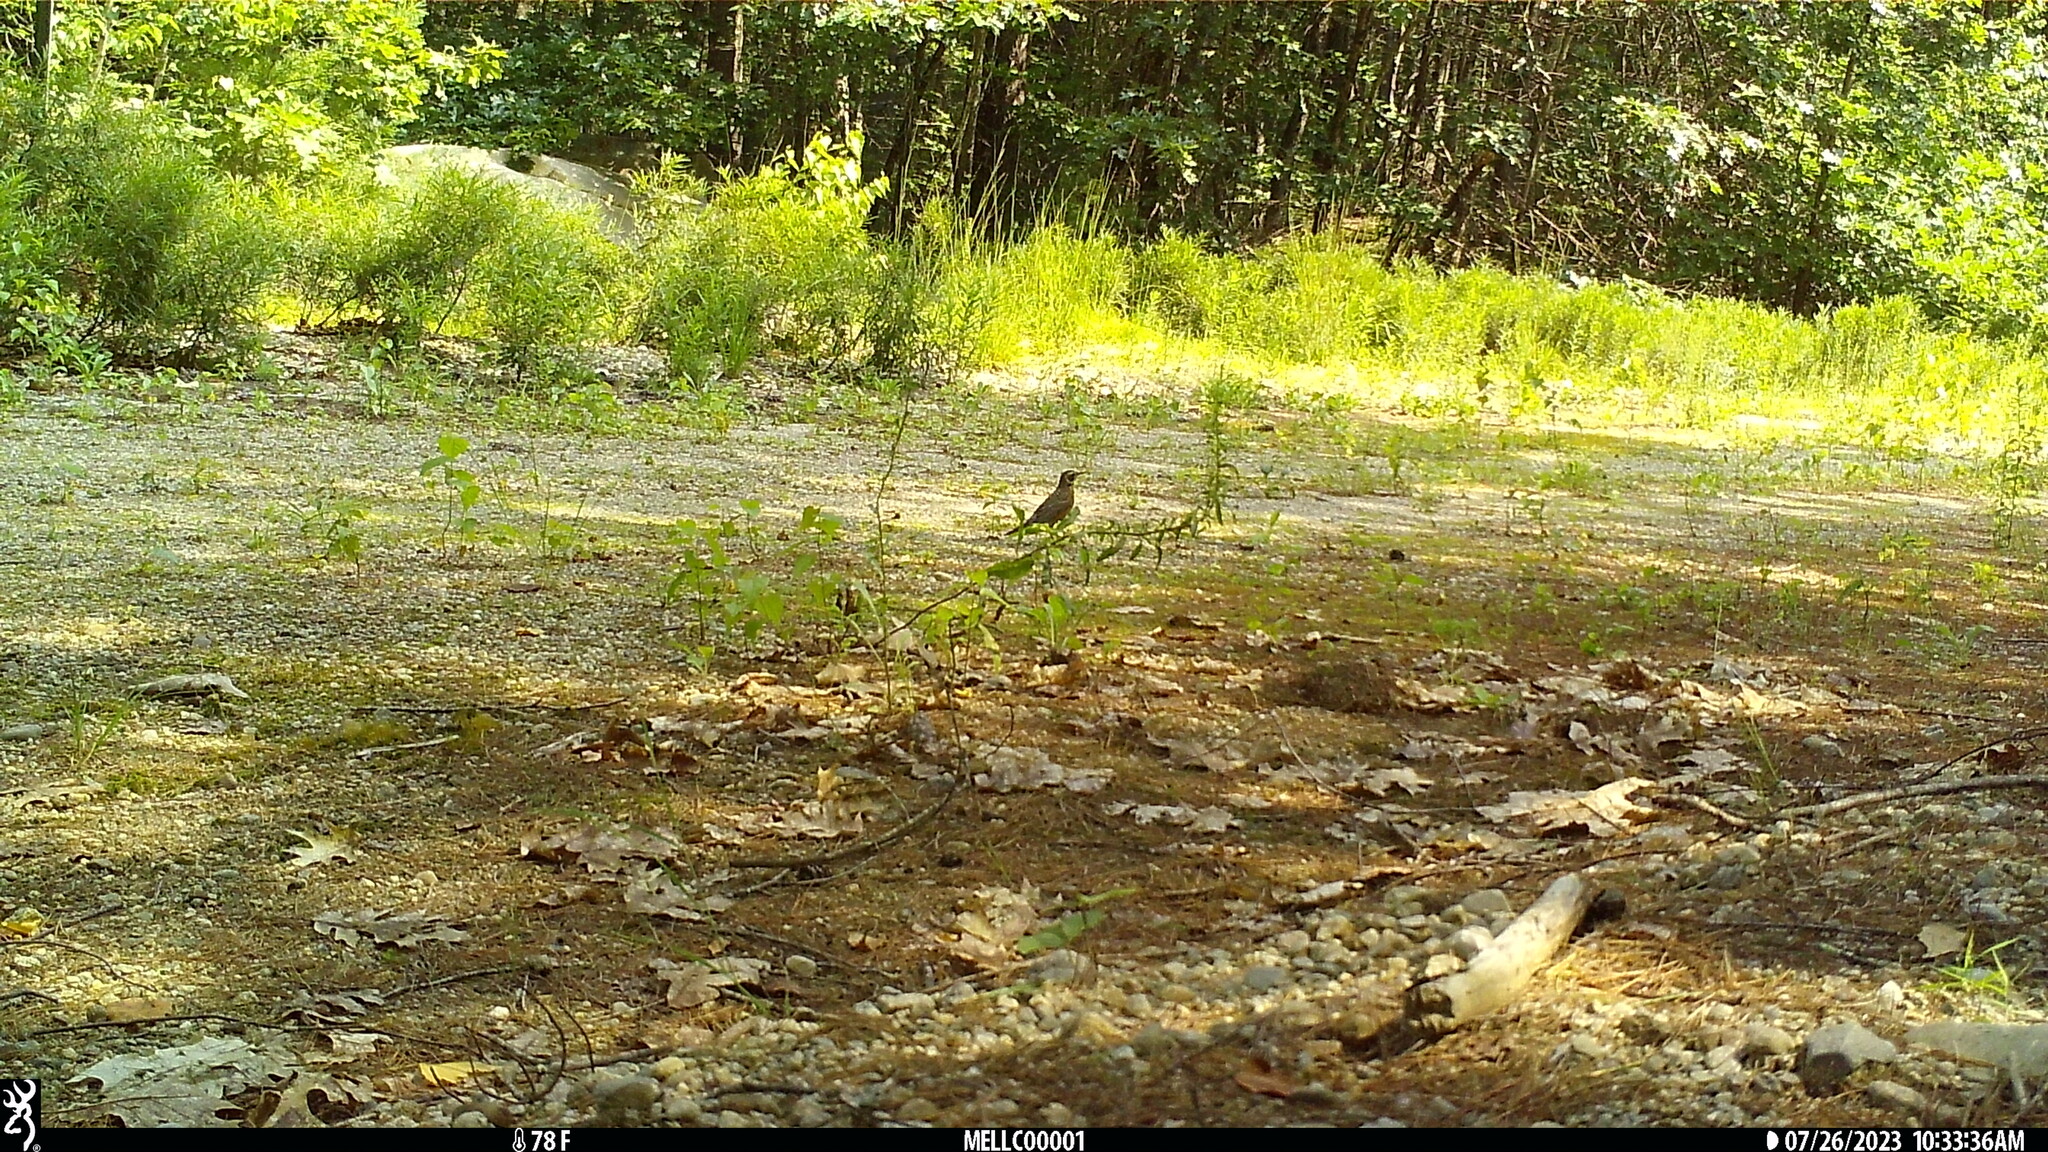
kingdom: Animalia
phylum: Chordata
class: Aves
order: Passeriformes
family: Turdidae
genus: Turdus
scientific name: Turdus migratorius
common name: American robin
